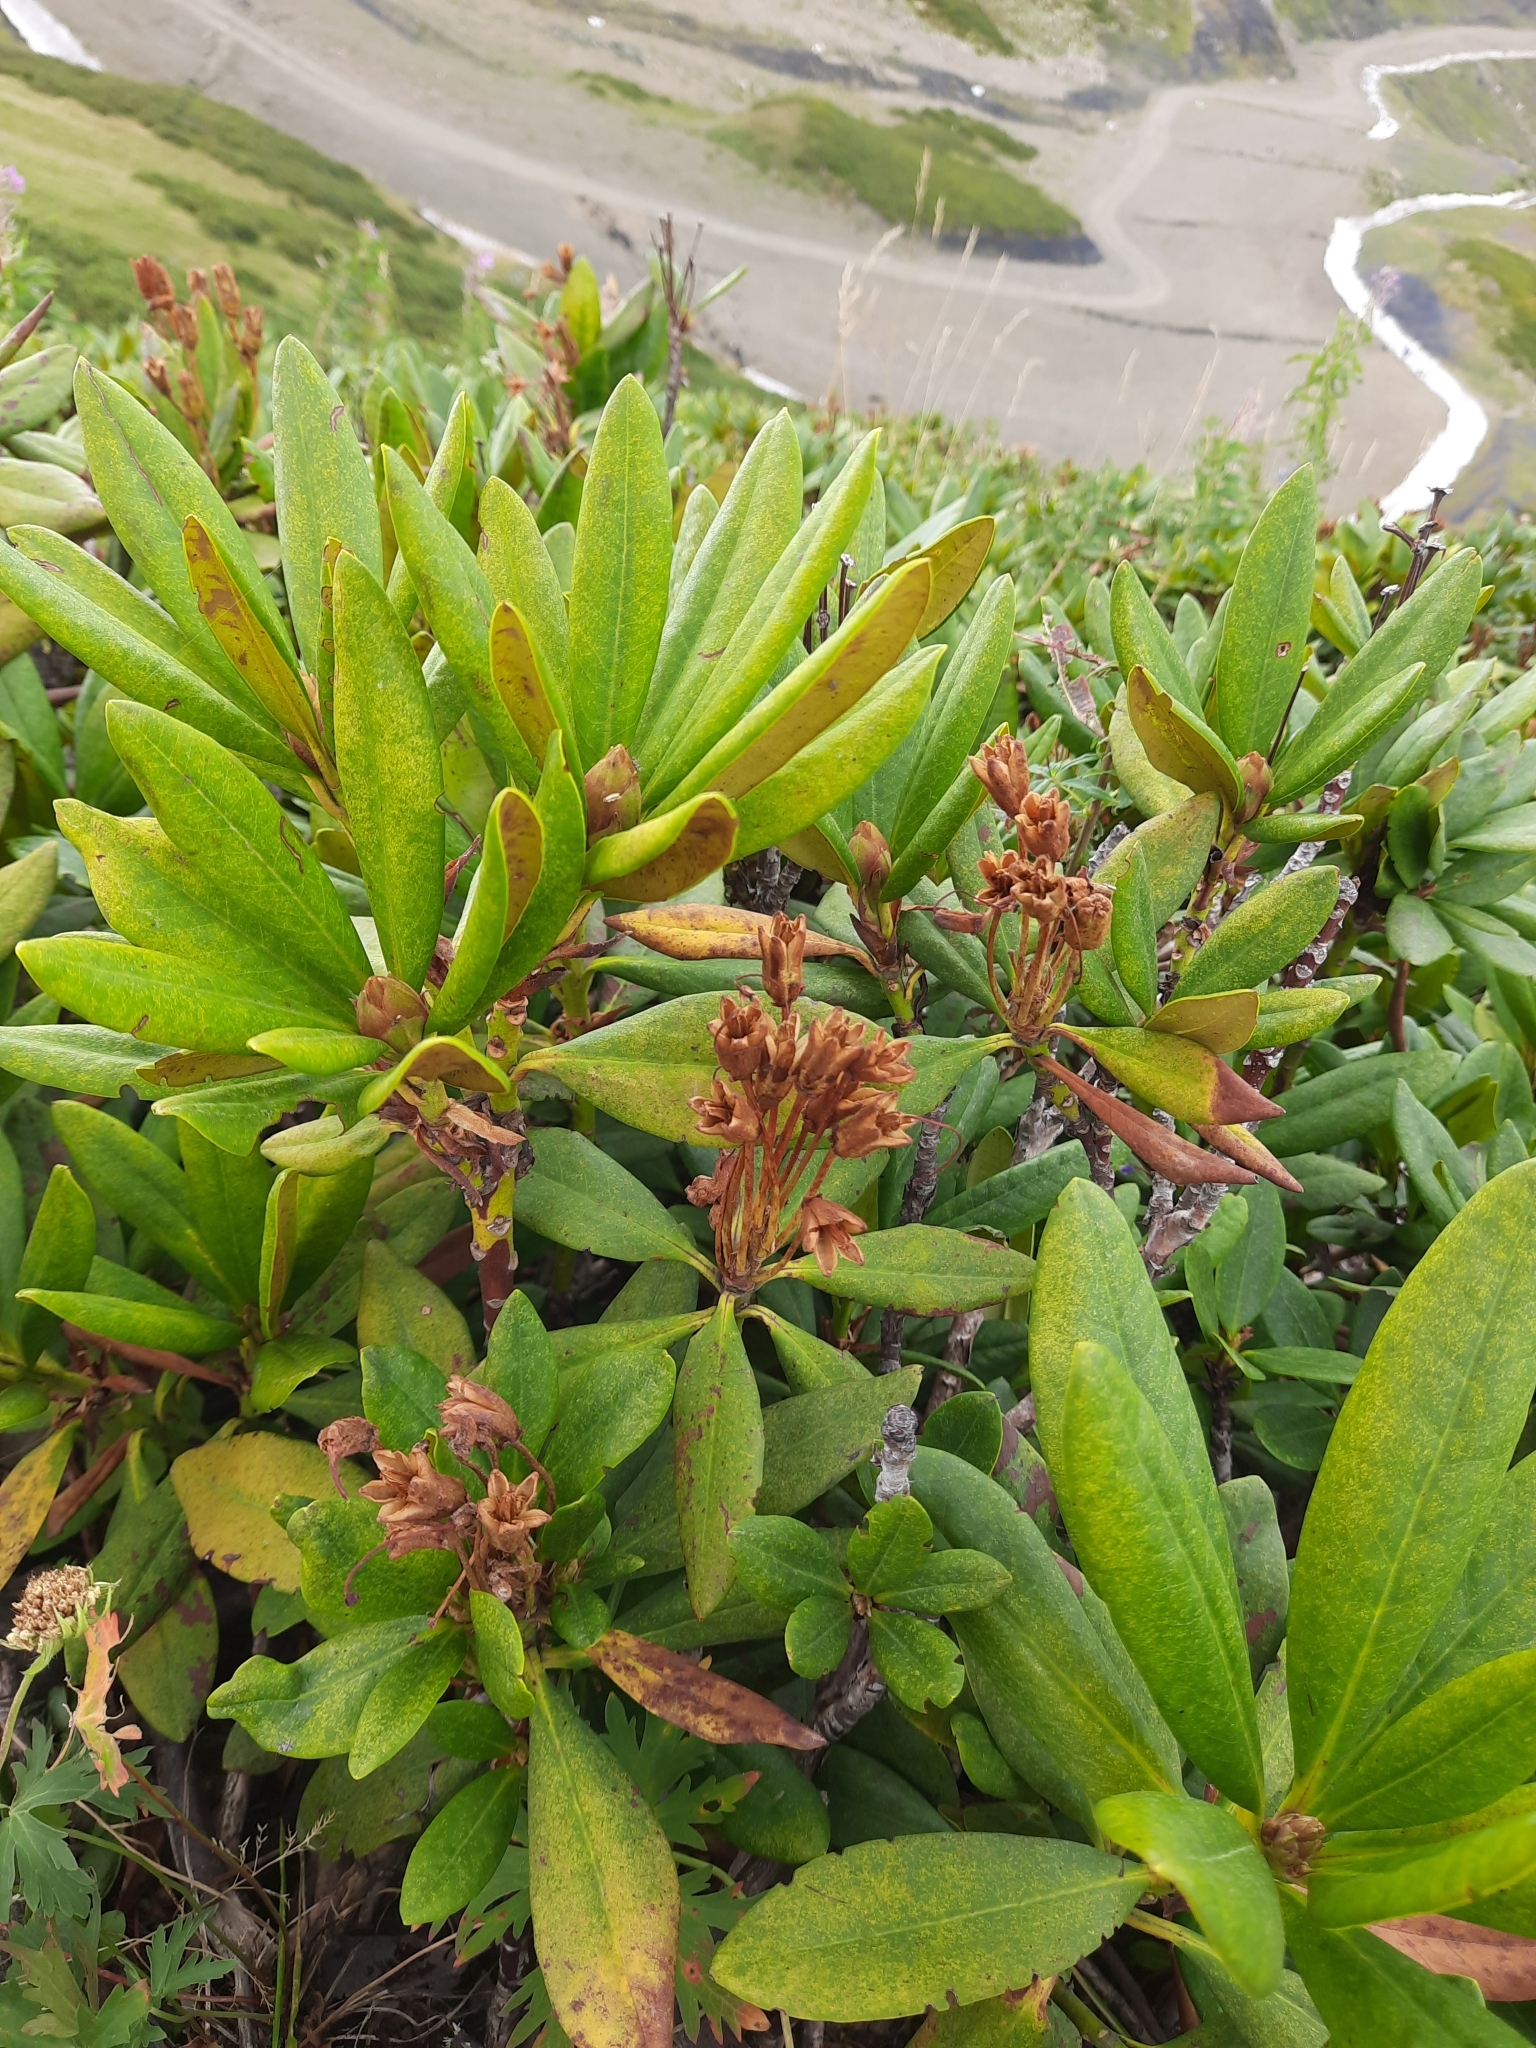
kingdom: Plantae
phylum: Tracheophyta
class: Magnoliopsida
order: Ericales
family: Ericaceae
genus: Rhododendron
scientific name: Rhododendron caucasicum
